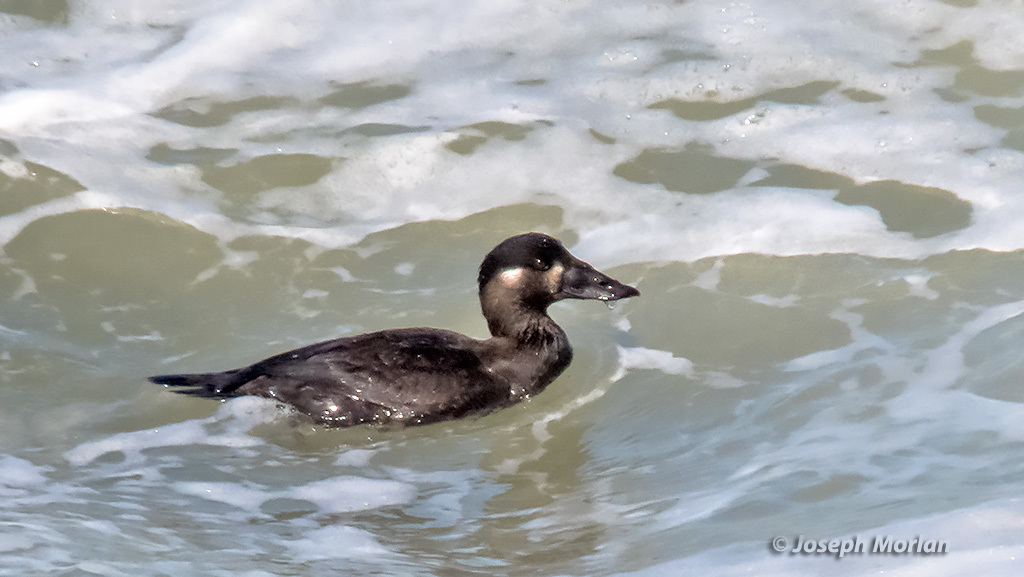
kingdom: Animalia
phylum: Chordata
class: Aves
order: Anseriformes
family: Anatidae
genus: Melanitta
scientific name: Melanitta perspicillata
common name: Surf scoter
